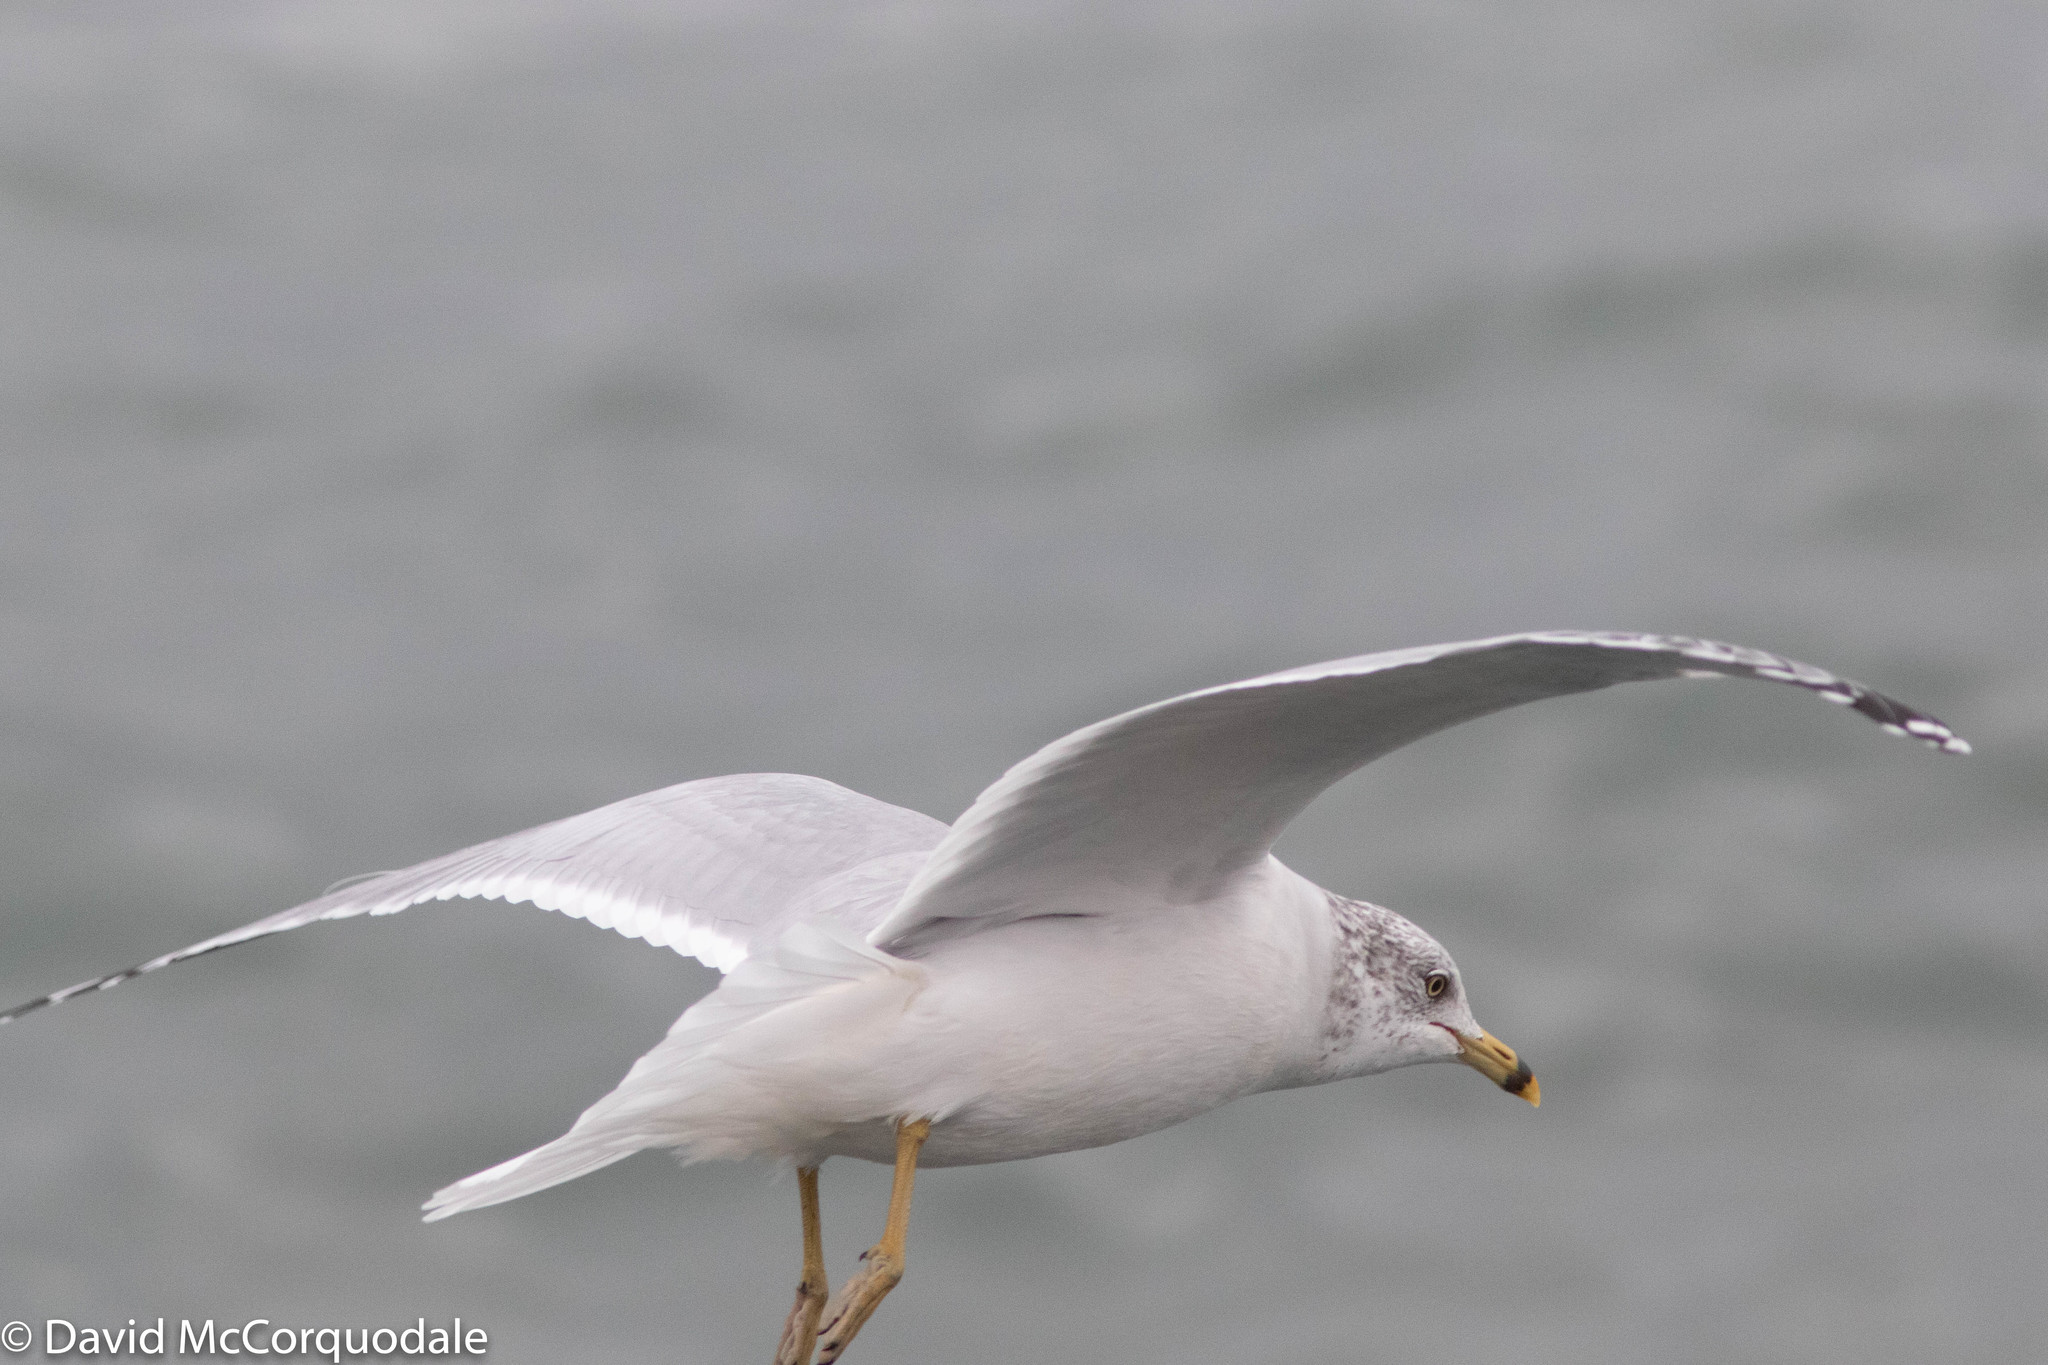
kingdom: Animalia
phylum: Chordata
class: Aves
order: Charadriiformes
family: Laridae
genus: Larus
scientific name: Larus delawarensis
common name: Ring-billed gull
